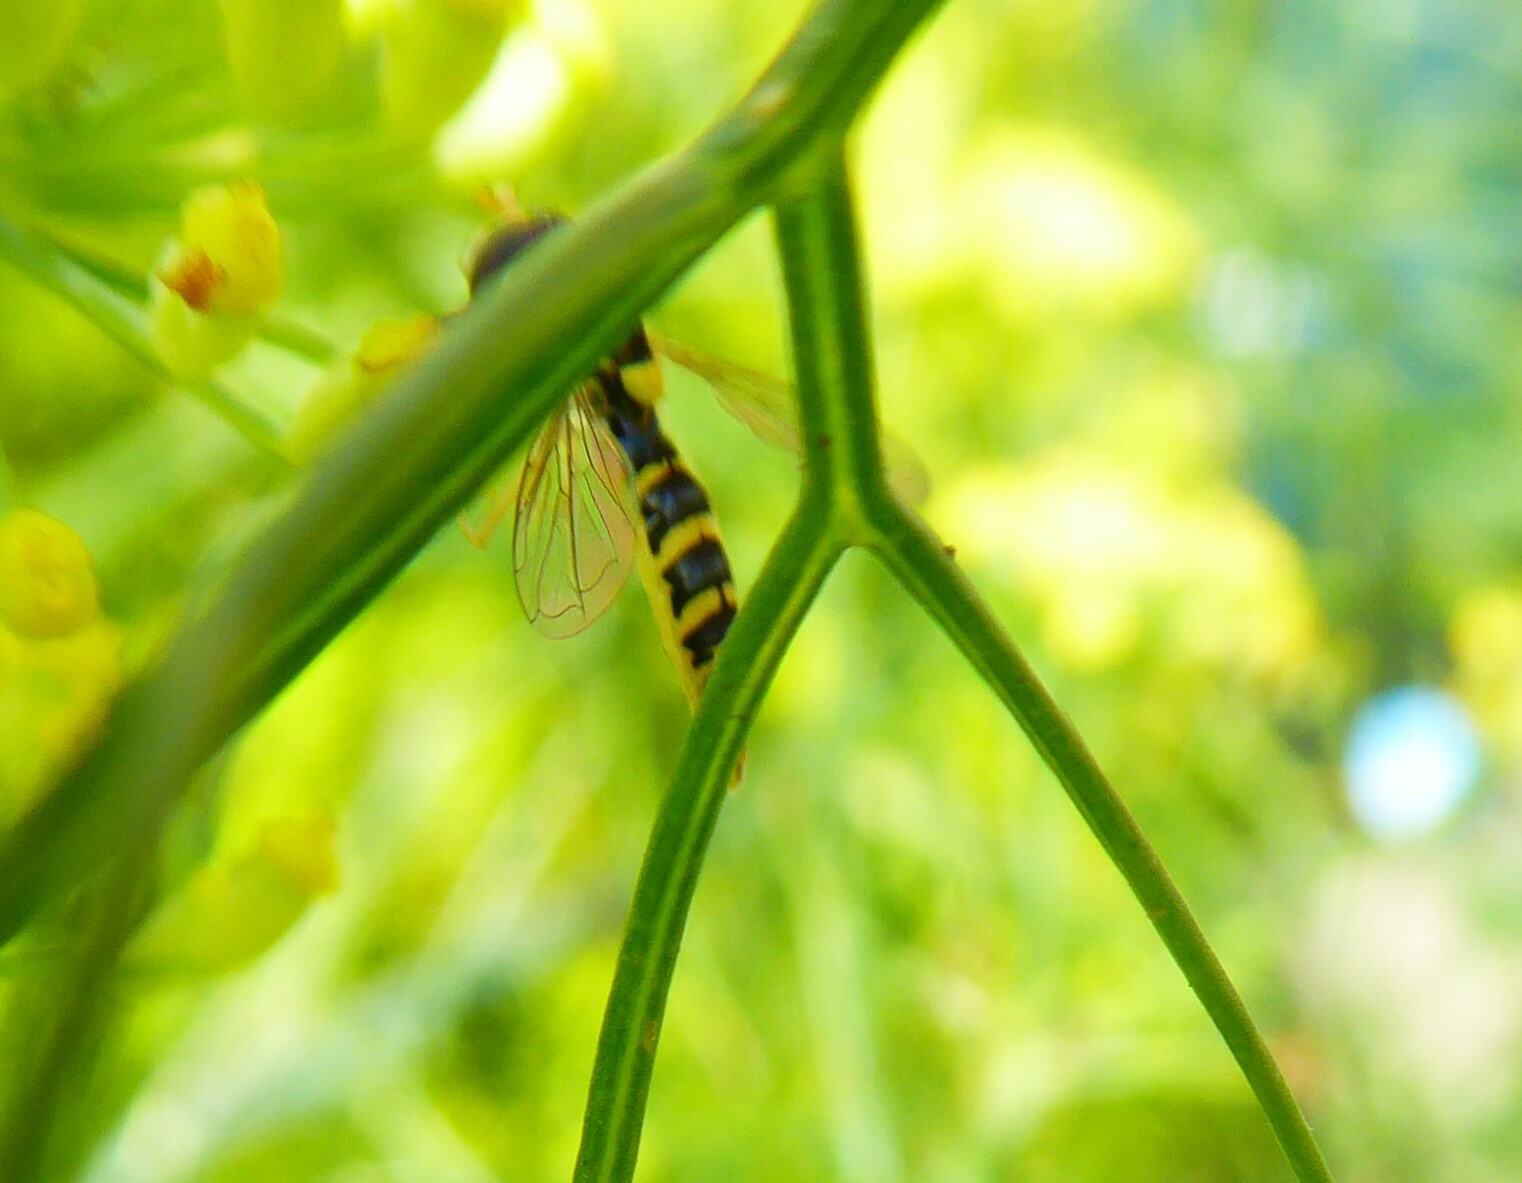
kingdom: Animalia
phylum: Arthropoda
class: Insecta
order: Diptera
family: Syrphidae
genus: Sphaerophoria
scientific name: Sphaerophoria
